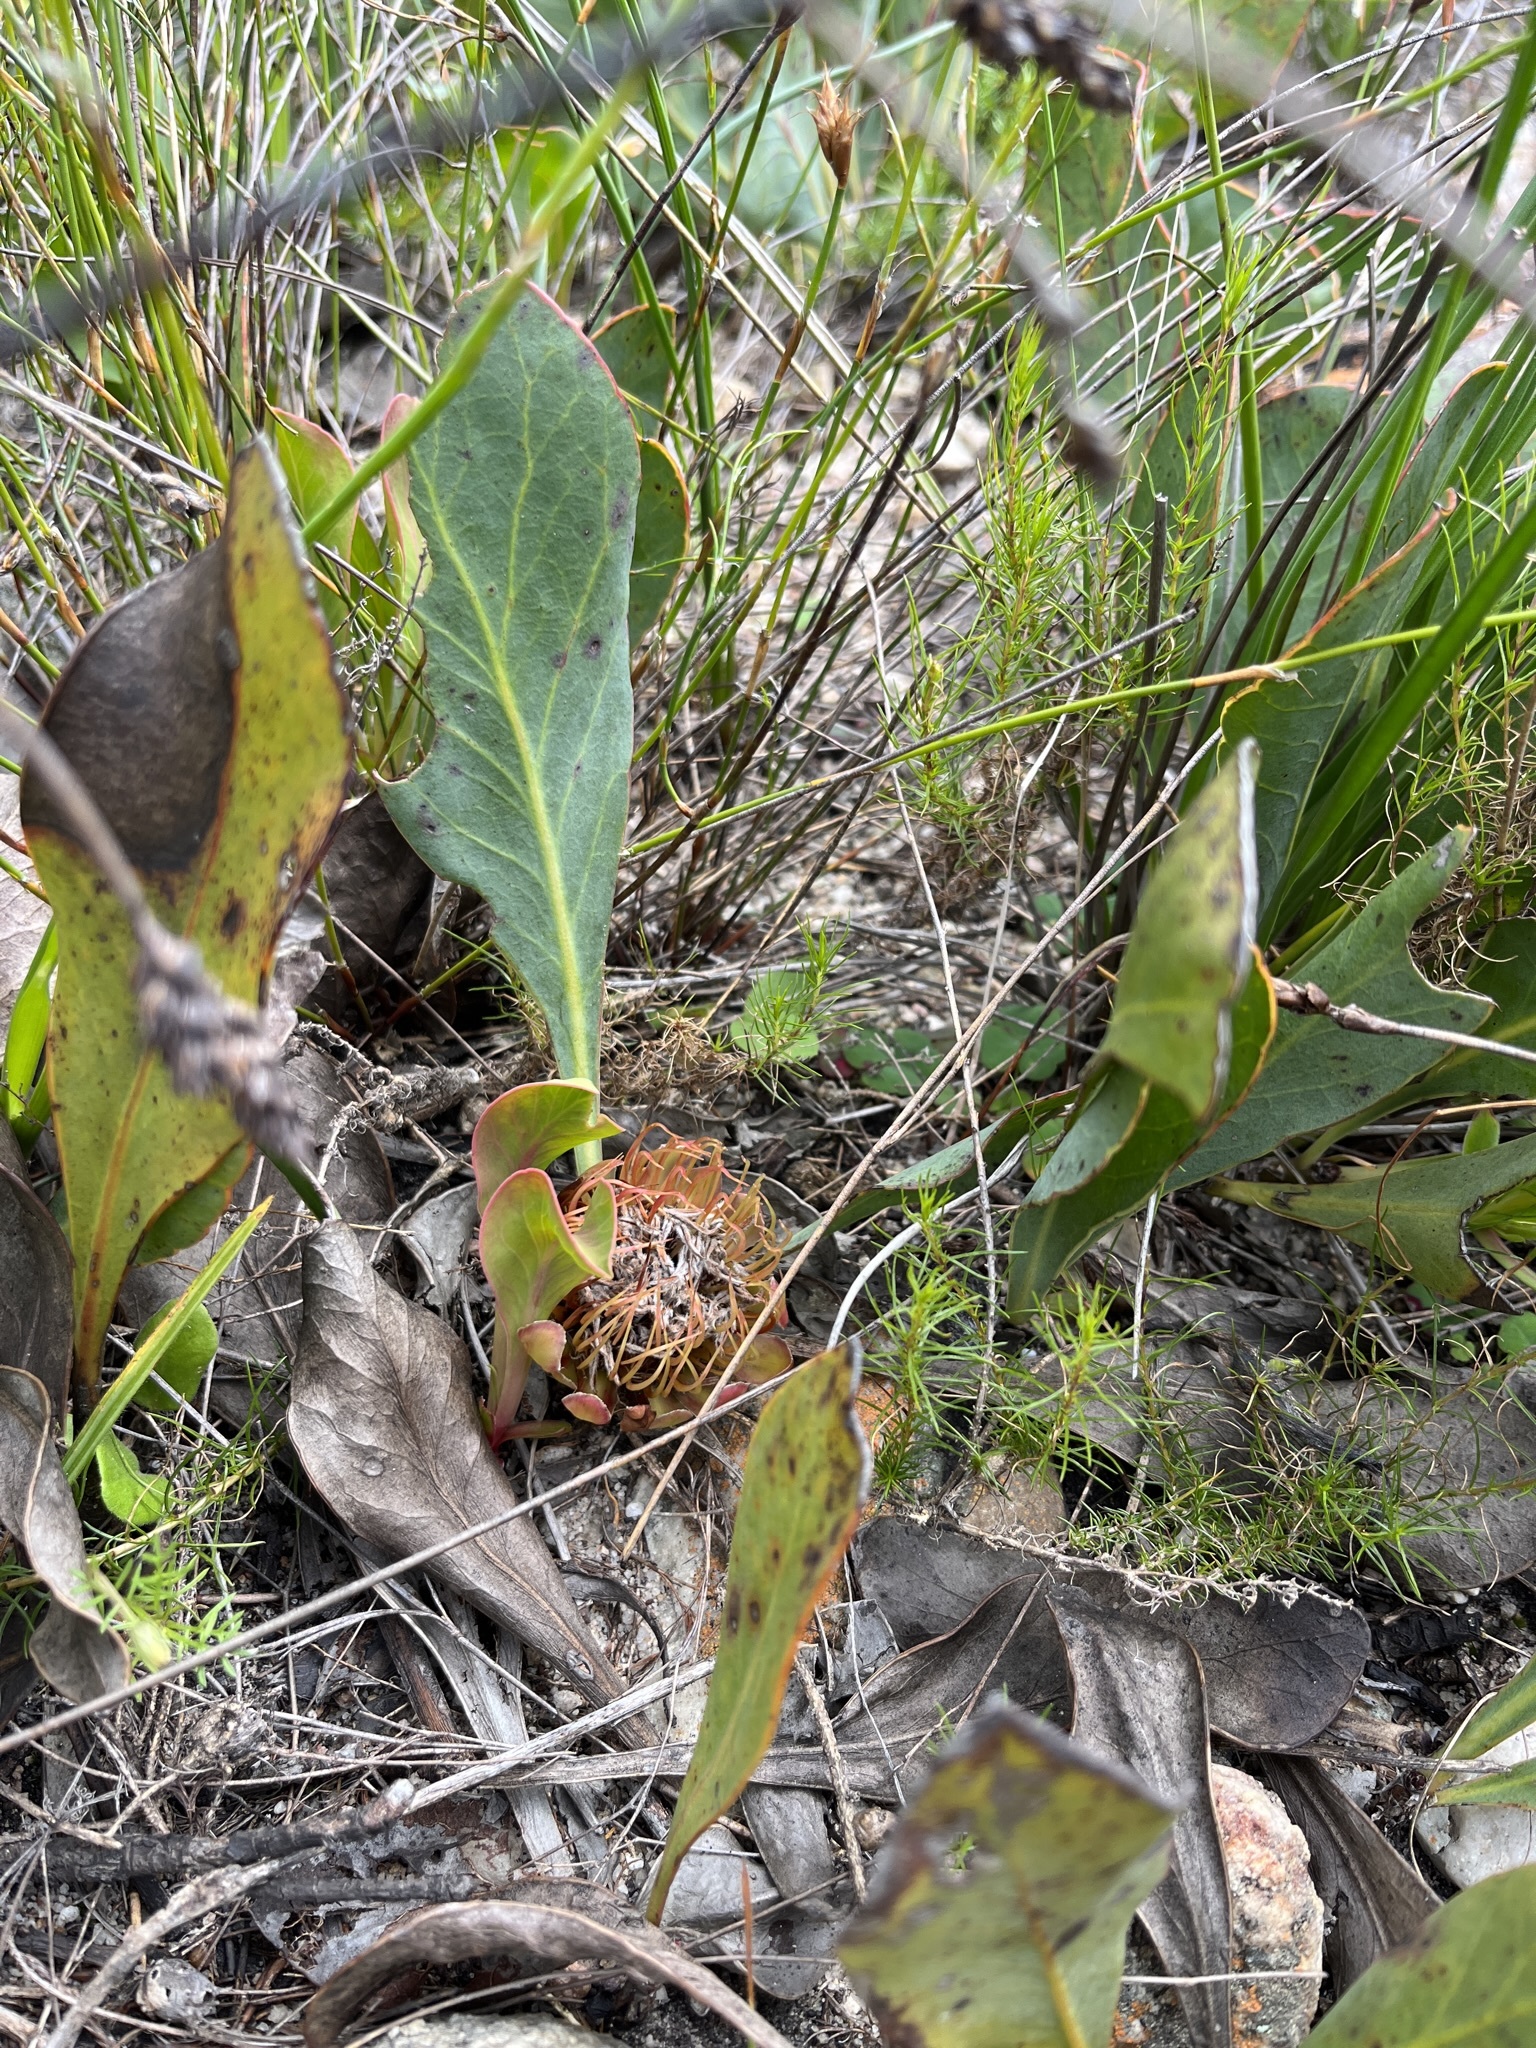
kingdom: Plantae
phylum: Tracheophyta
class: Magnoliopsida
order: Proteales
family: Proteaceae
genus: Protea
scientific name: Protea acaulos
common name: Common ground sugarbush
